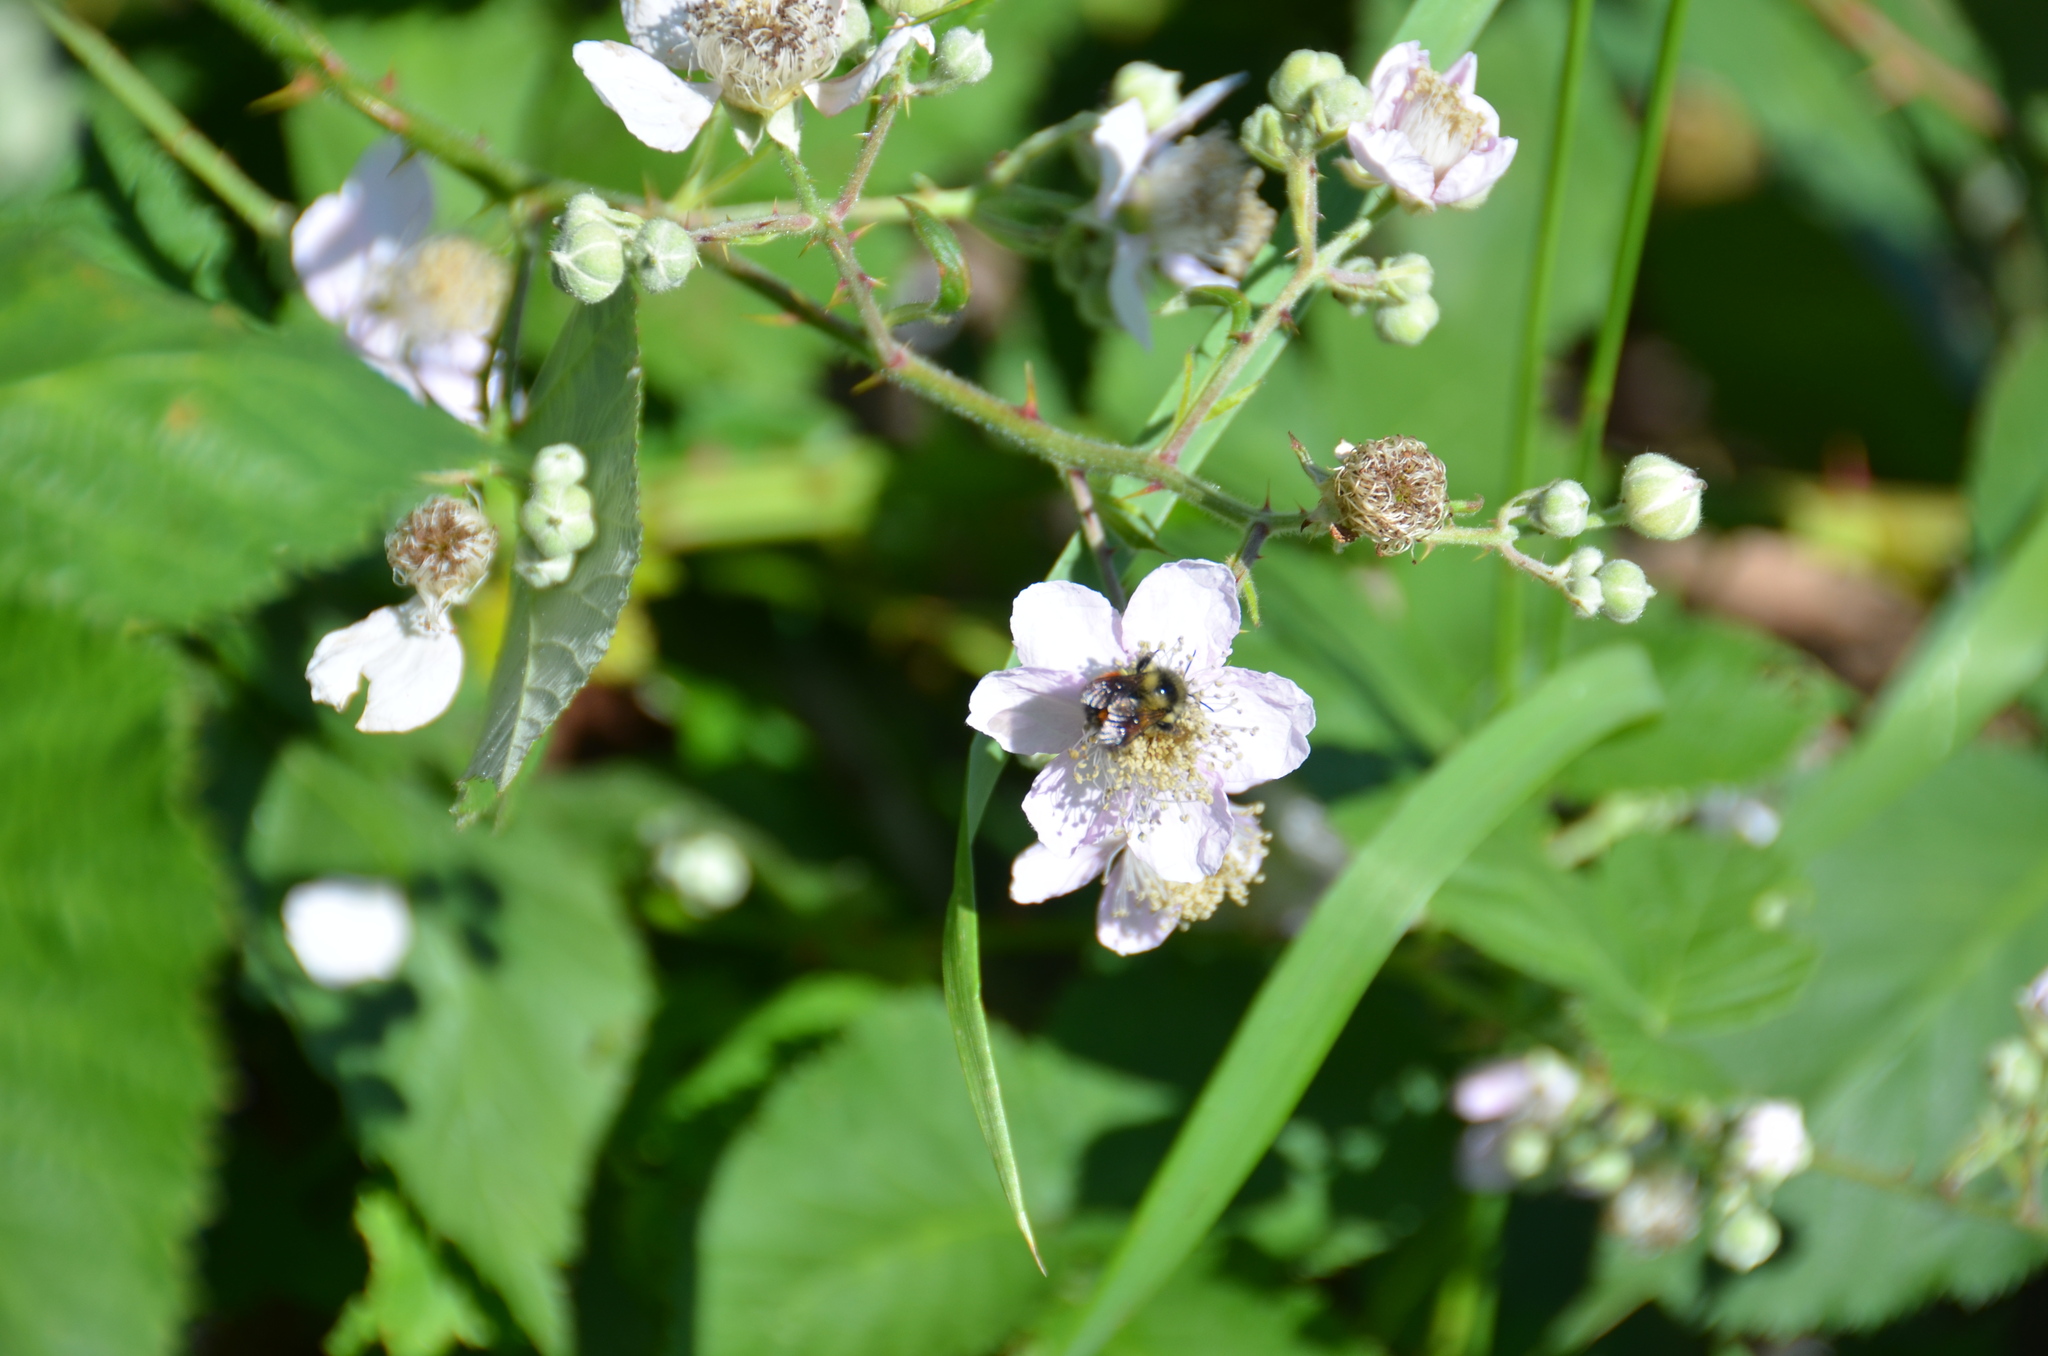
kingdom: Animalia
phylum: Arthropoda
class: Insecta
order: Hymenoptera
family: Apidae
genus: Bombus
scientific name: Bombus melanopygus
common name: Black tail bumble bee
